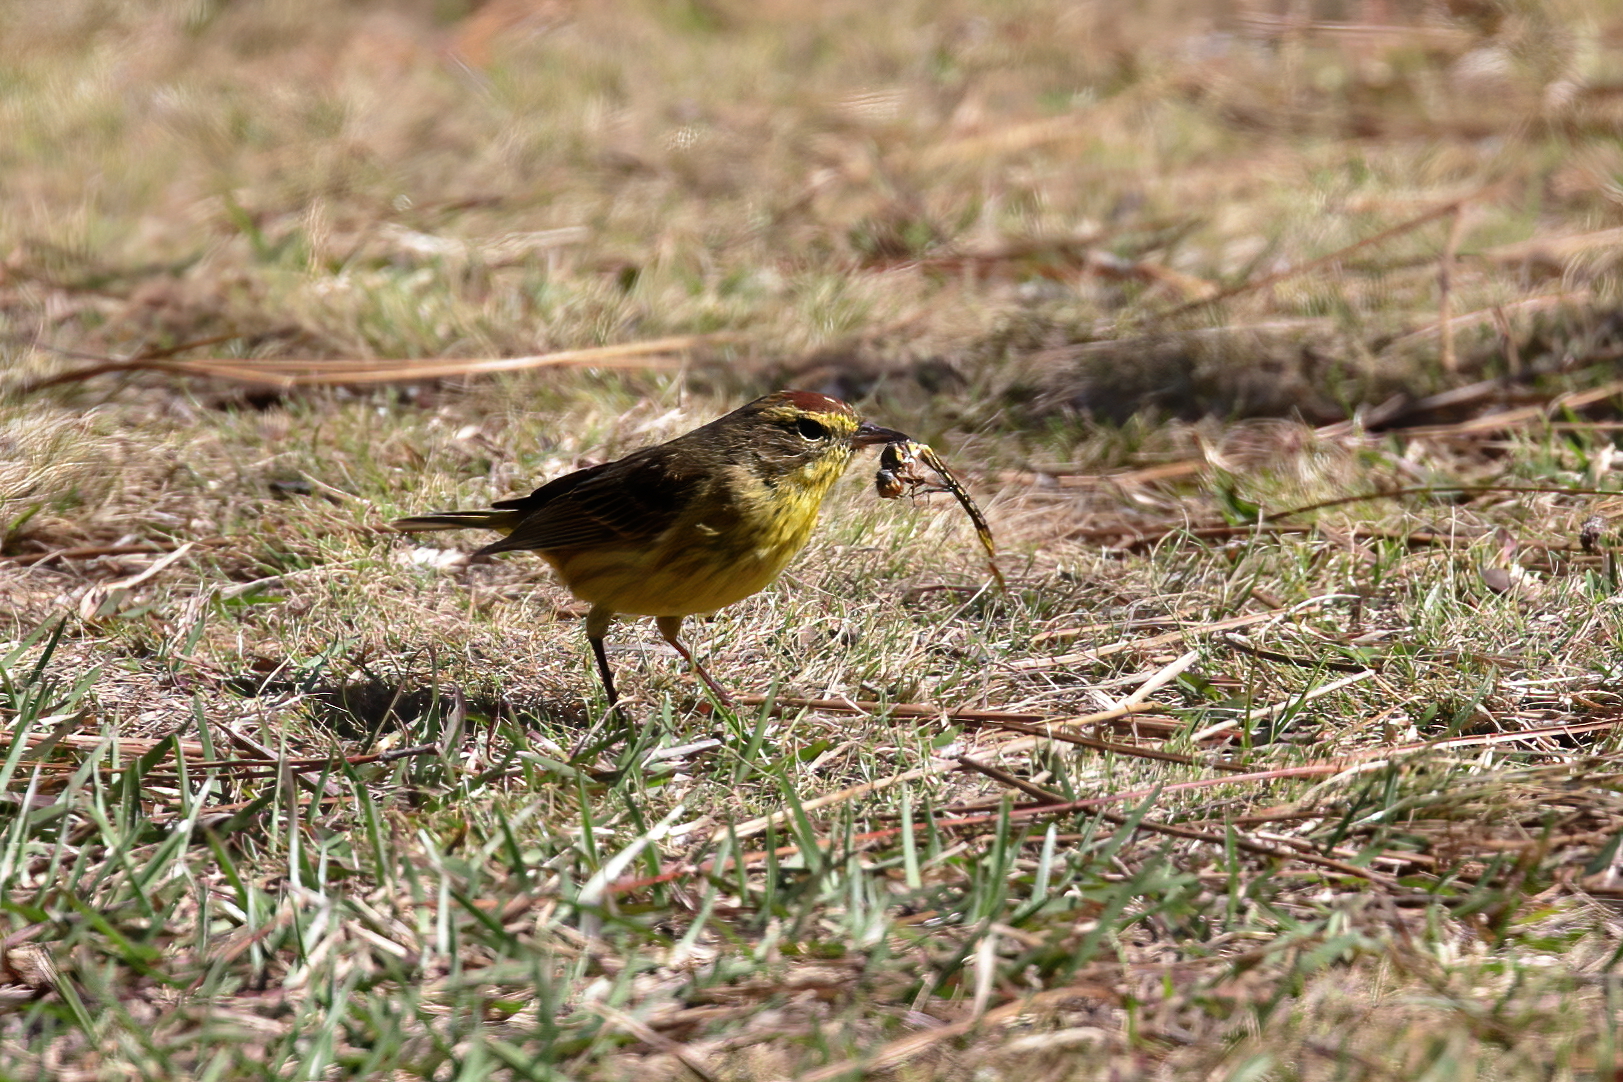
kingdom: Animalia
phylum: Chordata
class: Aves
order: Passeriformes
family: Parulidae
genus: Setophaga
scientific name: Setophaga palmarum
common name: Palm warbler
